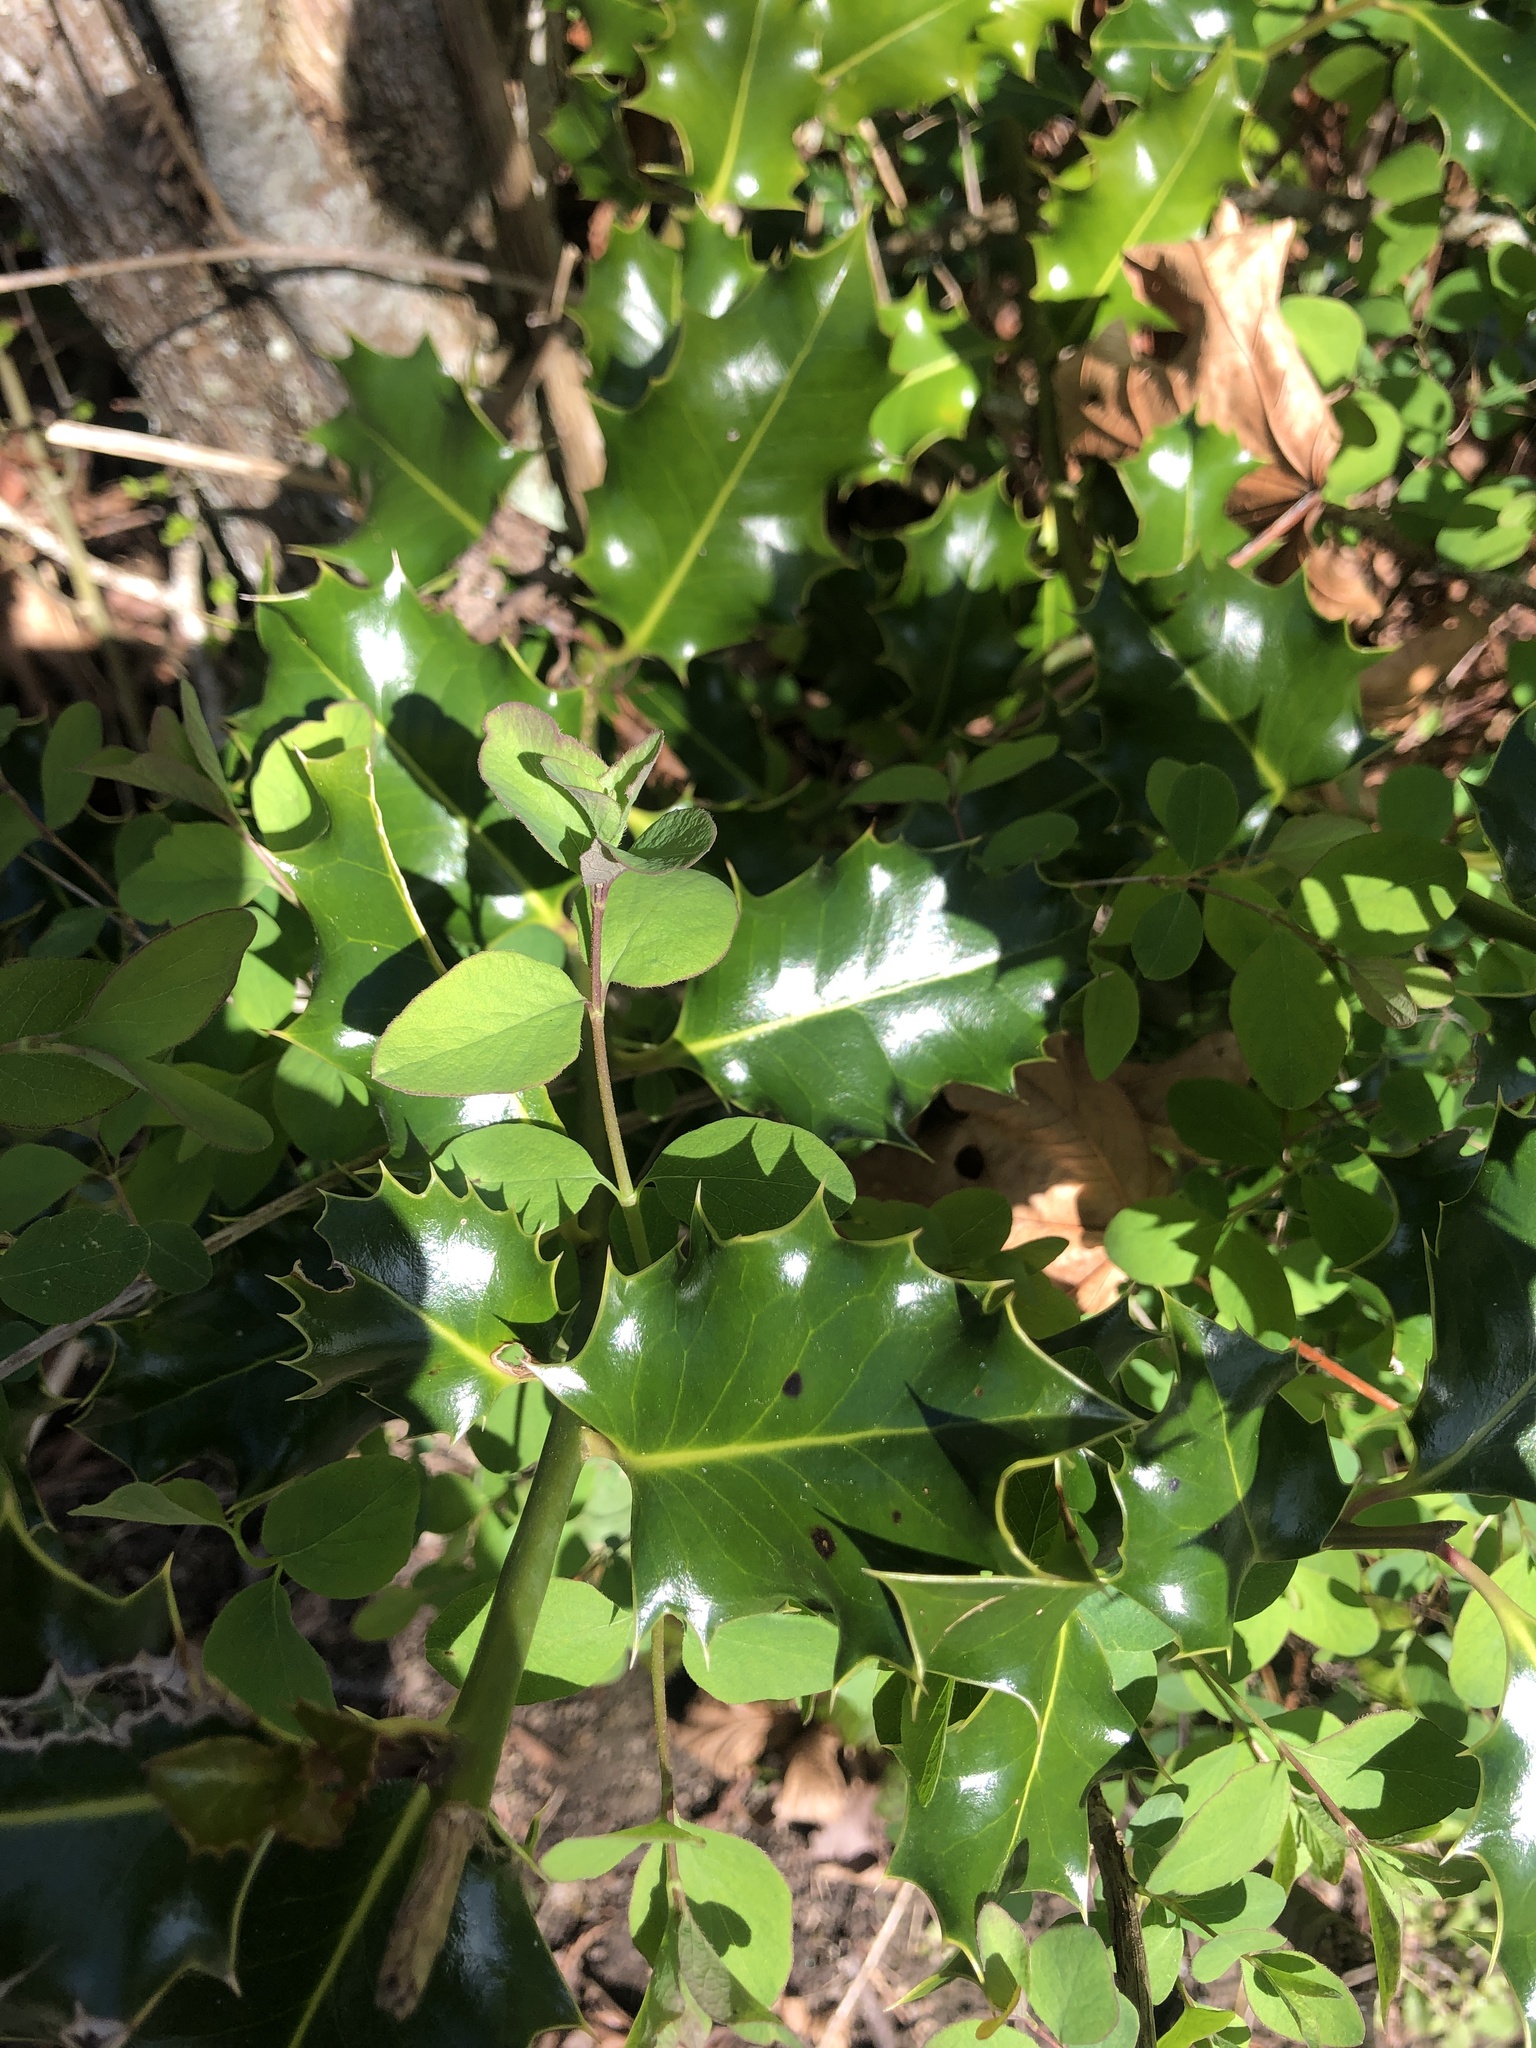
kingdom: Plantae
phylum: Tracheophyta
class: Magnoliopsida
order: Aquifoliales
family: Aquifoliaceae
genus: Ilex
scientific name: Ilex aquifolium
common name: English holly
